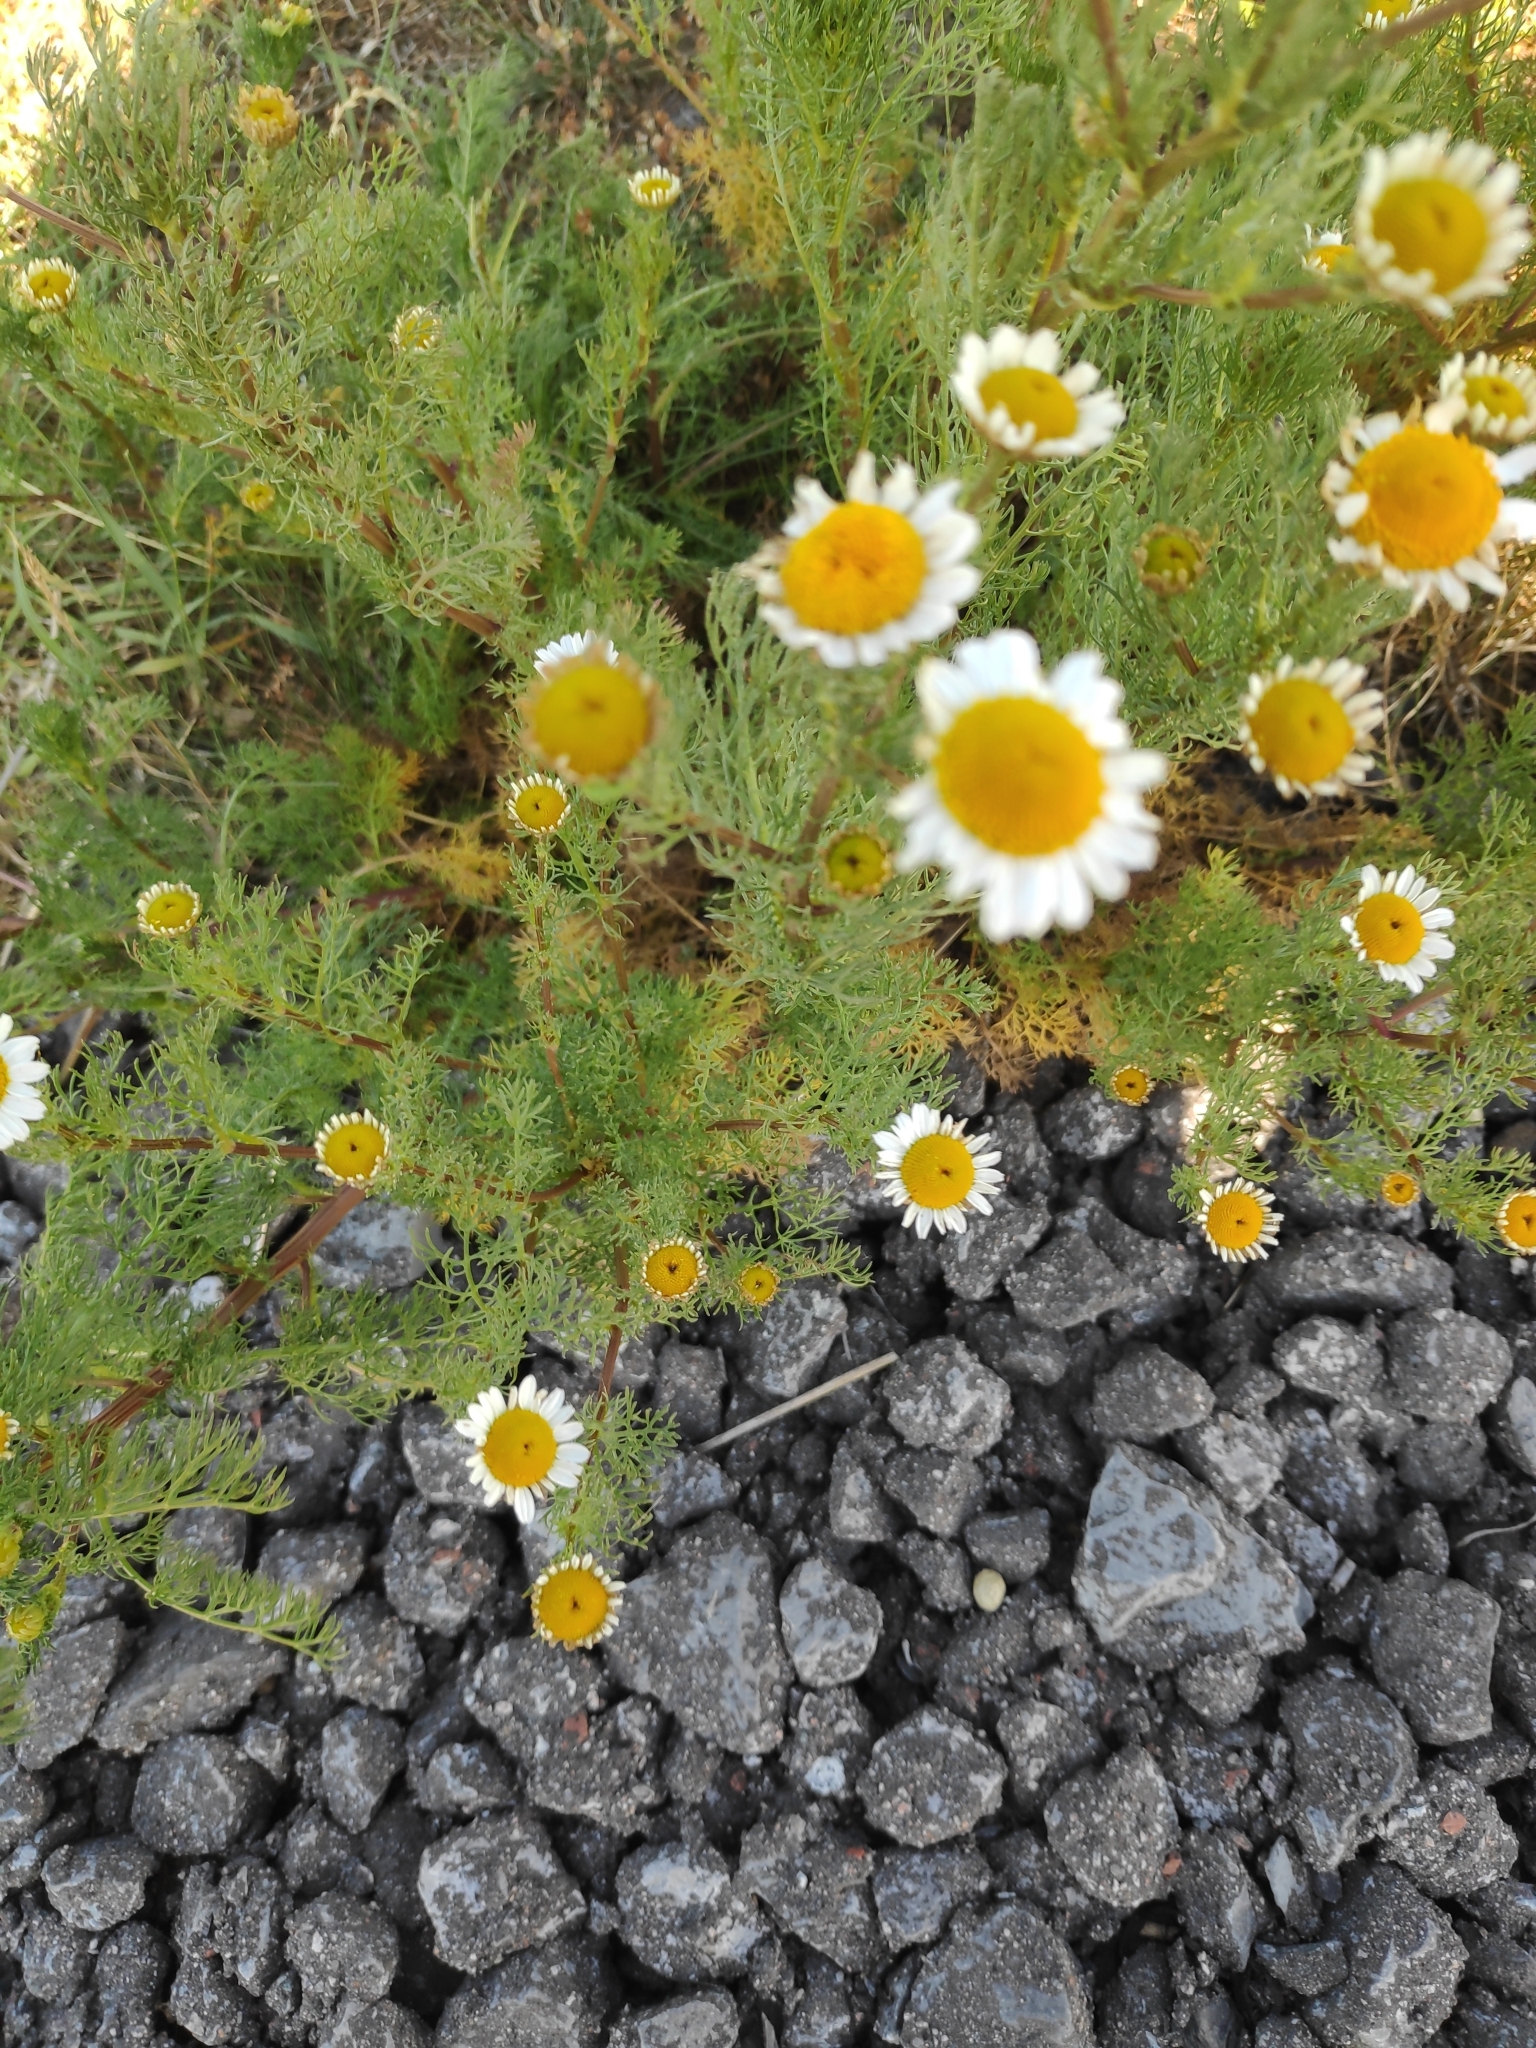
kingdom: Plantae
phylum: Tracheophyta
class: Magnoliopsida
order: Asterales
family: Asteraceae
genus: Matricaria
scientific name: Matricaria chamomilla
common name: Scented mayweed
